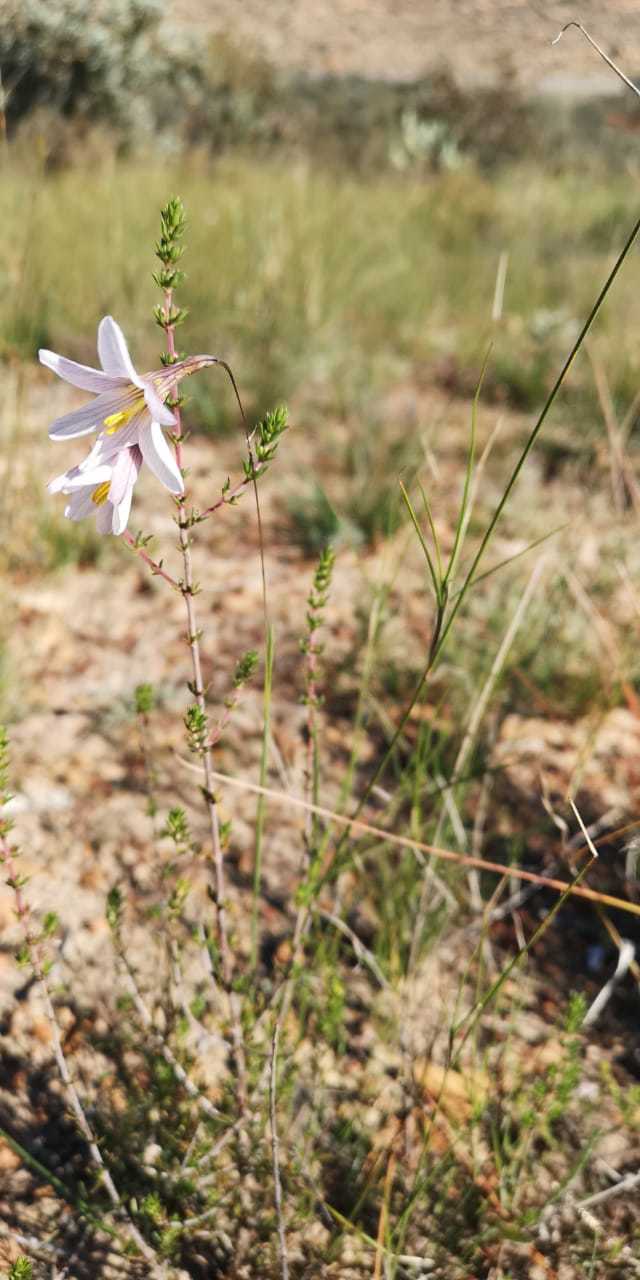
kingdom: Plantae
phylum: Tracheophyta
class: Liliopsida
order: Asparagales
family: Iridaceae
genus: Ixia
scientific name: Ixia capillaris
